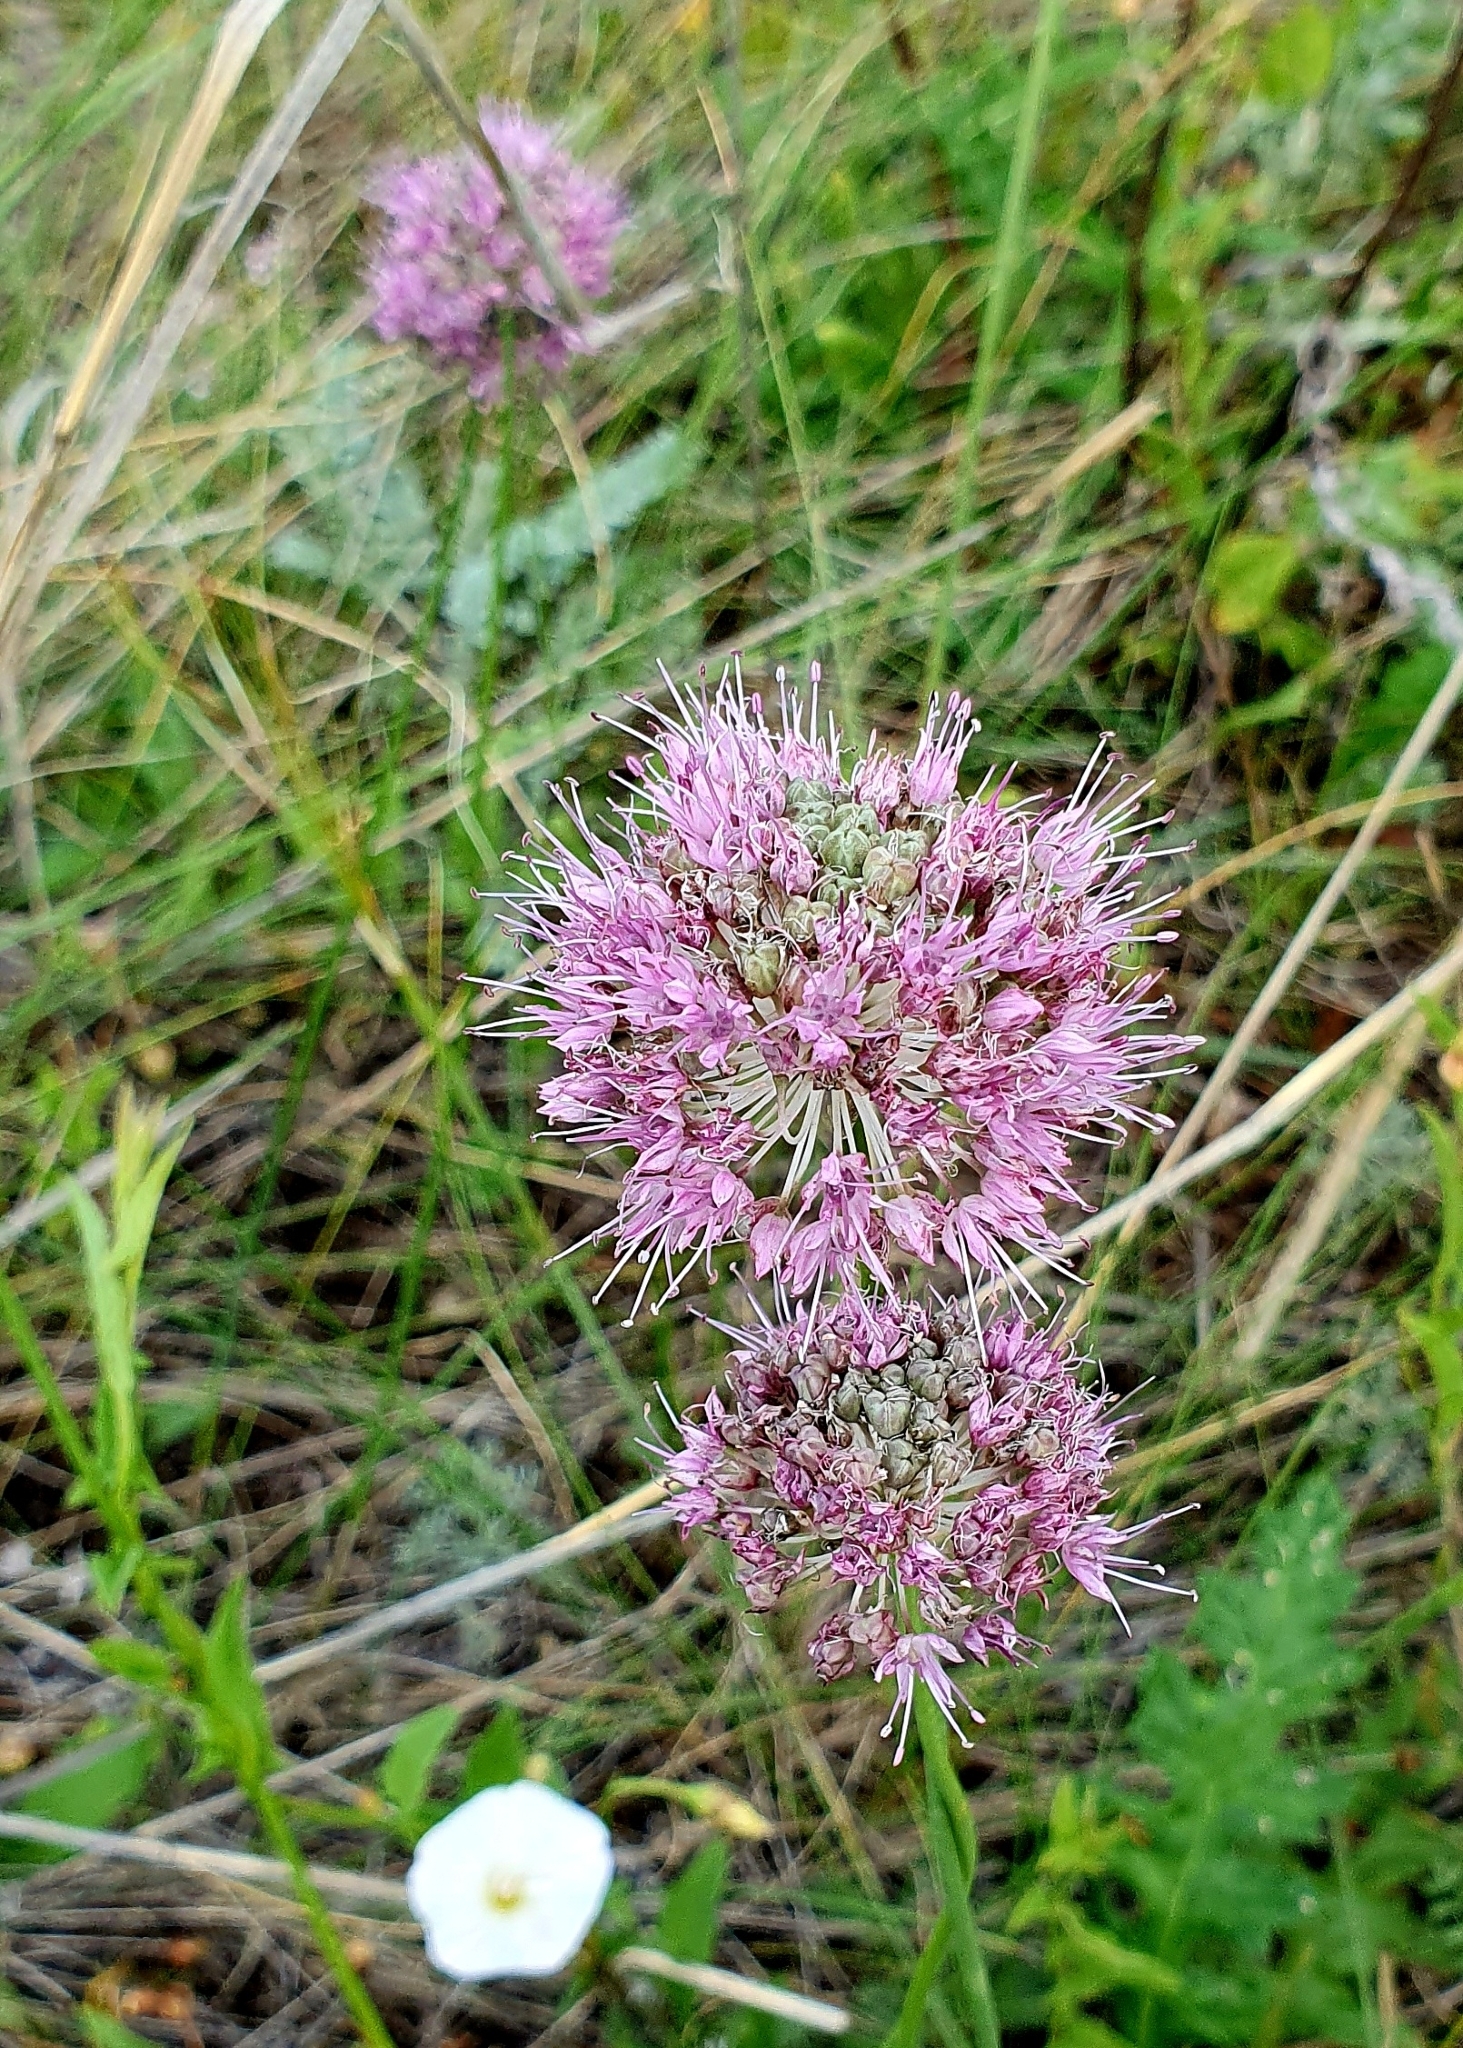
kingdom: Plantae
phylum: Tracheophyta
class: Liliopsida
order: Asparagales
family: Amaryllidaceae
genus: Allium
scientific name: Allium lineare
